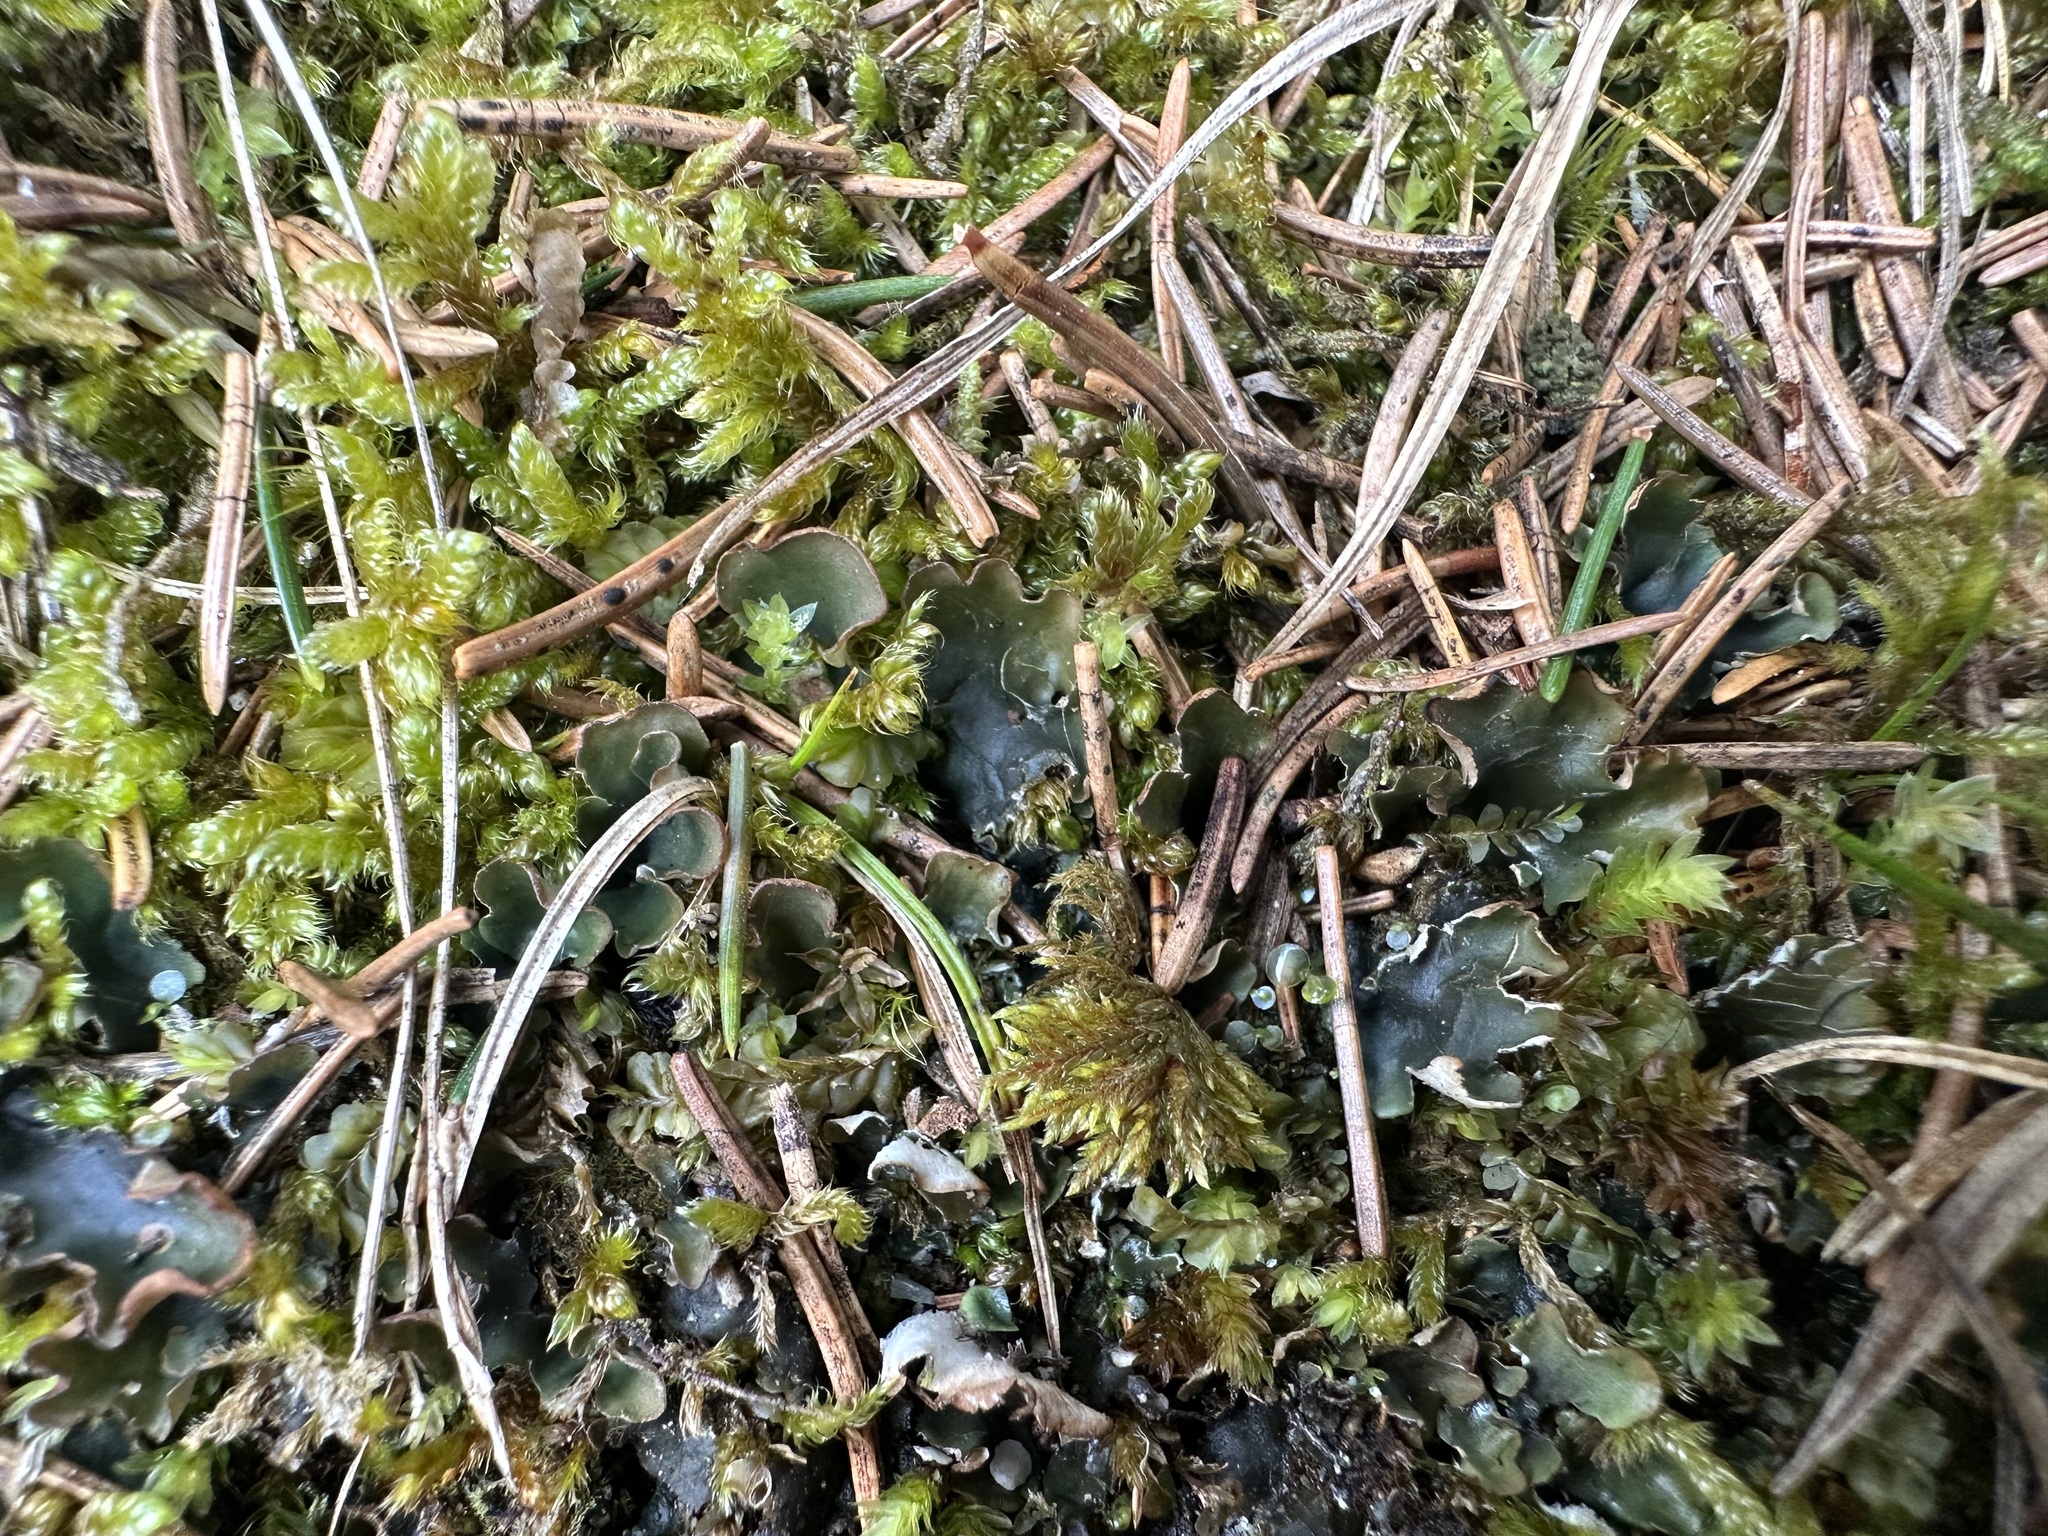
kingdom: Fungi
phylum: Ascomycota
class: Lecanoromycetes
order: Peltigerales
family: Peltigeraceae
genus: Peltigera
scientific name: Peltigera malacea
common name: Matt felt lichen
